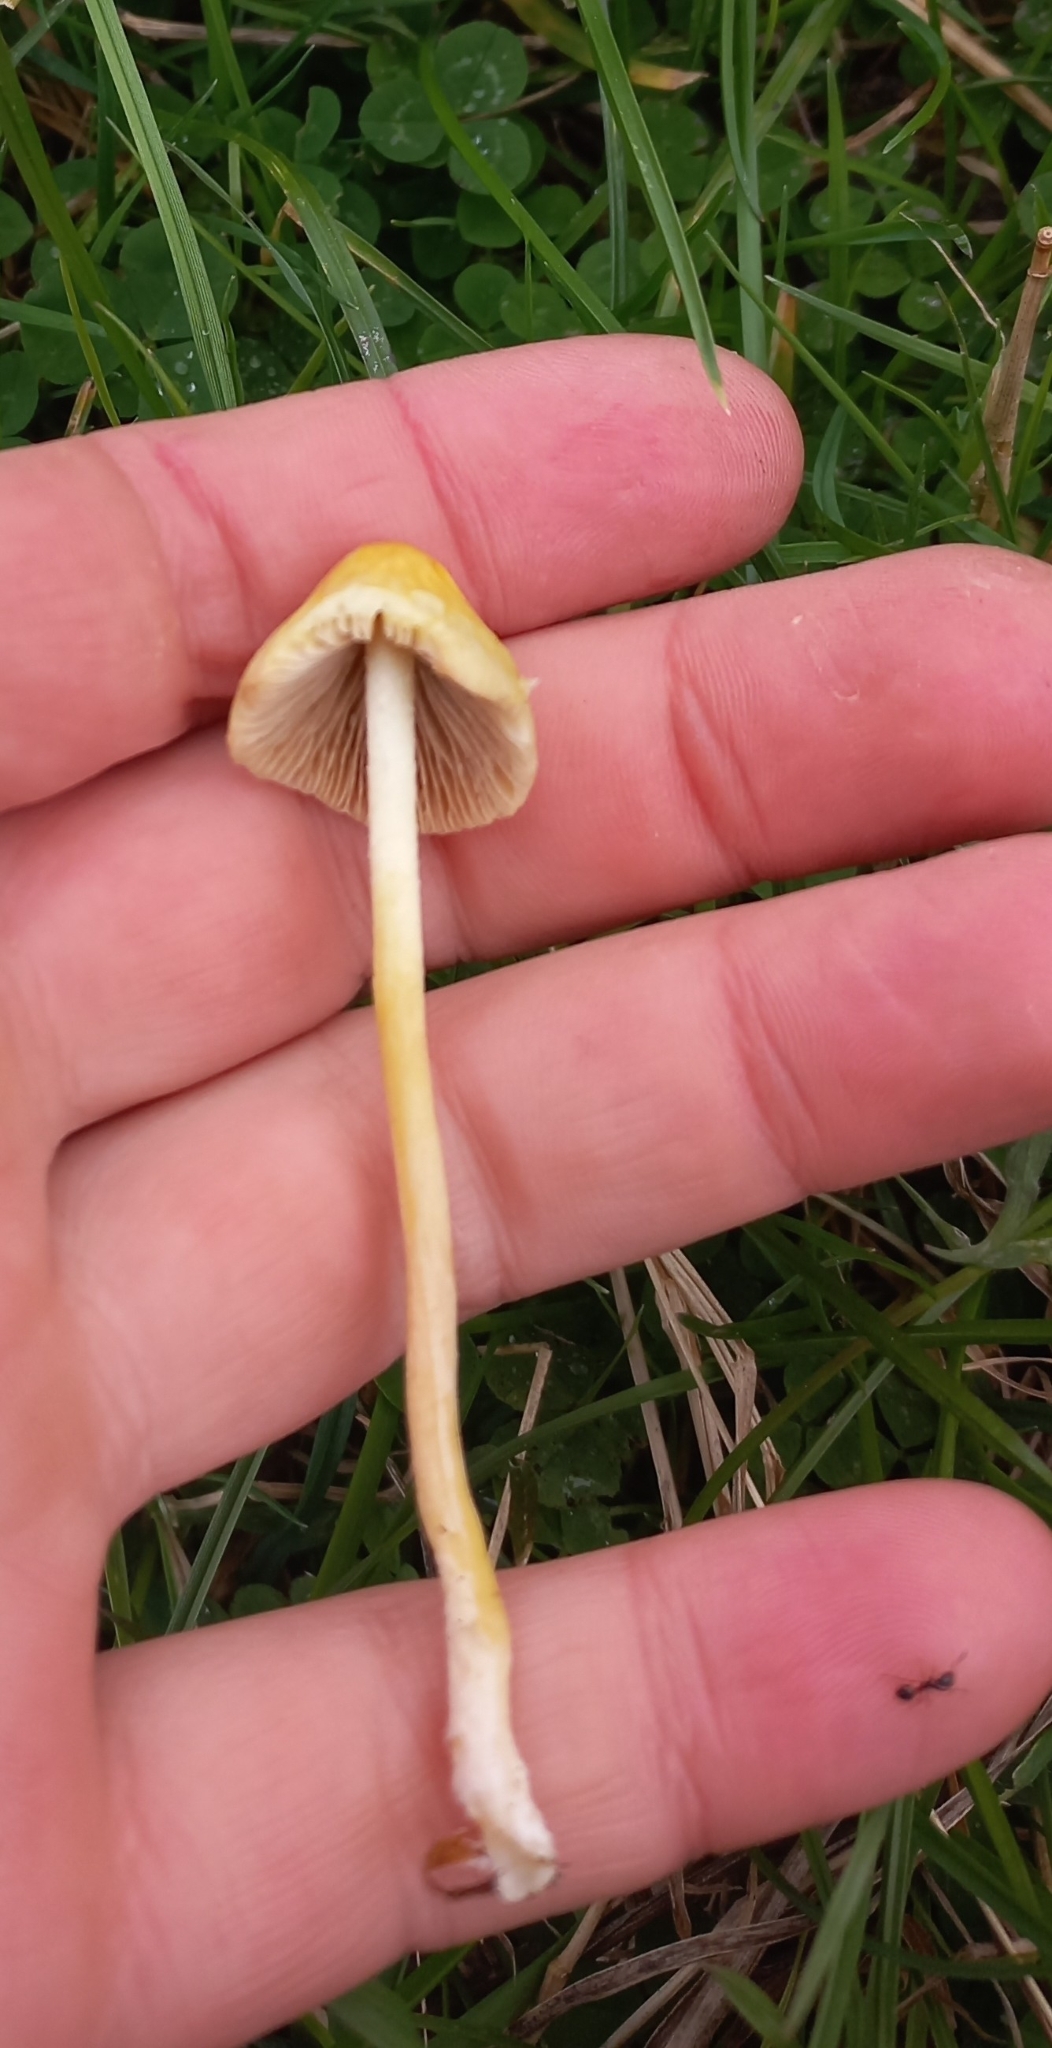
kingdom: Fungi
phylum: Basidiomycota
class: Agaricomycetes
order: Agaricales
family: Bolbitiaceae
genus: Bolbitius
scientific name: Bolbitius titubans
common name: Yellow fieldcap
